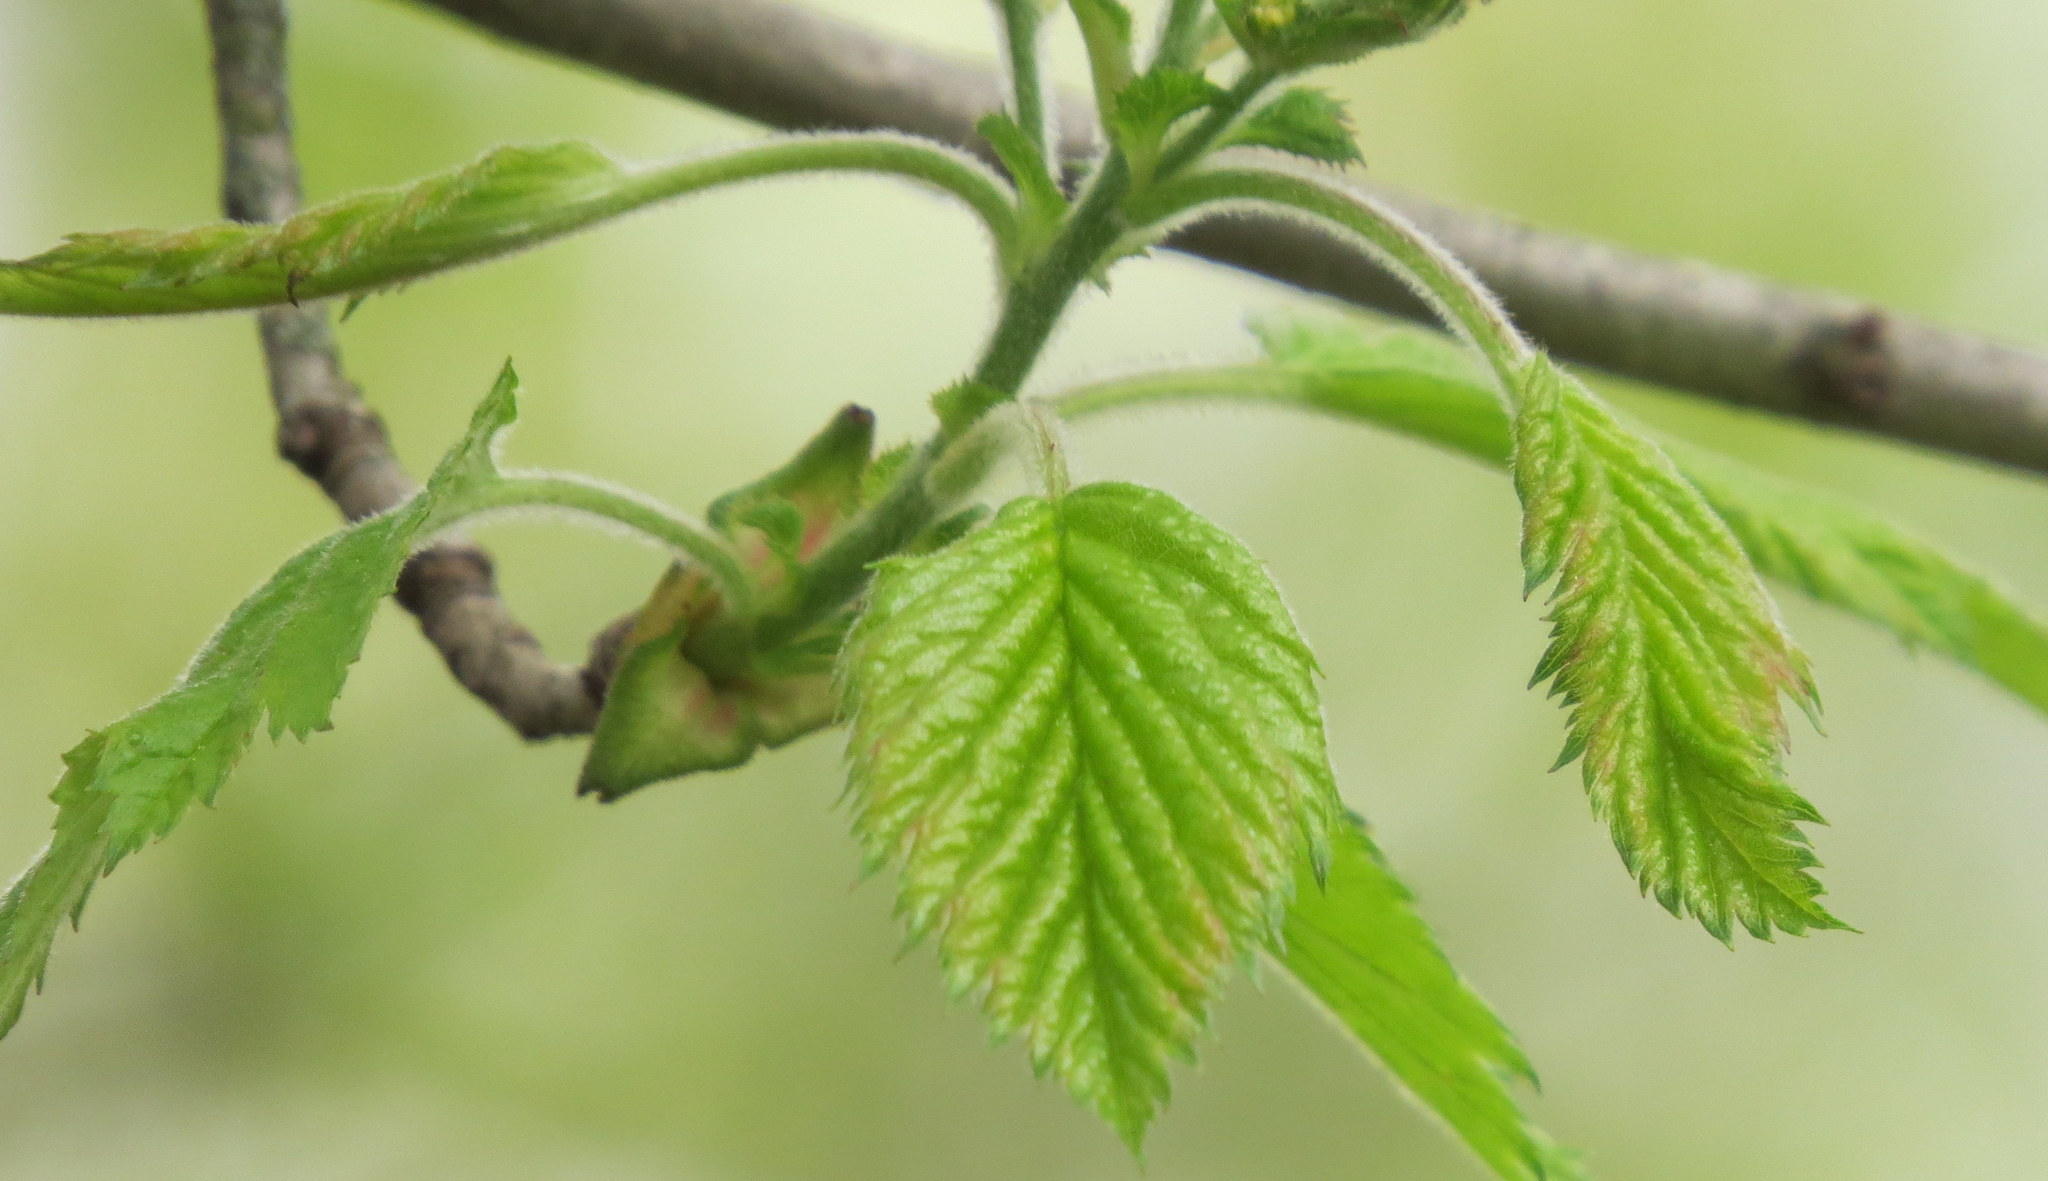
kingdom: Plantae
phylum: Tracheophyta
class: Magnoliopsida
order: Rosales
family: Rosaceae
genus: Crataegus
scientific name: Crataegus mollis
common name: Downy hawthorn
